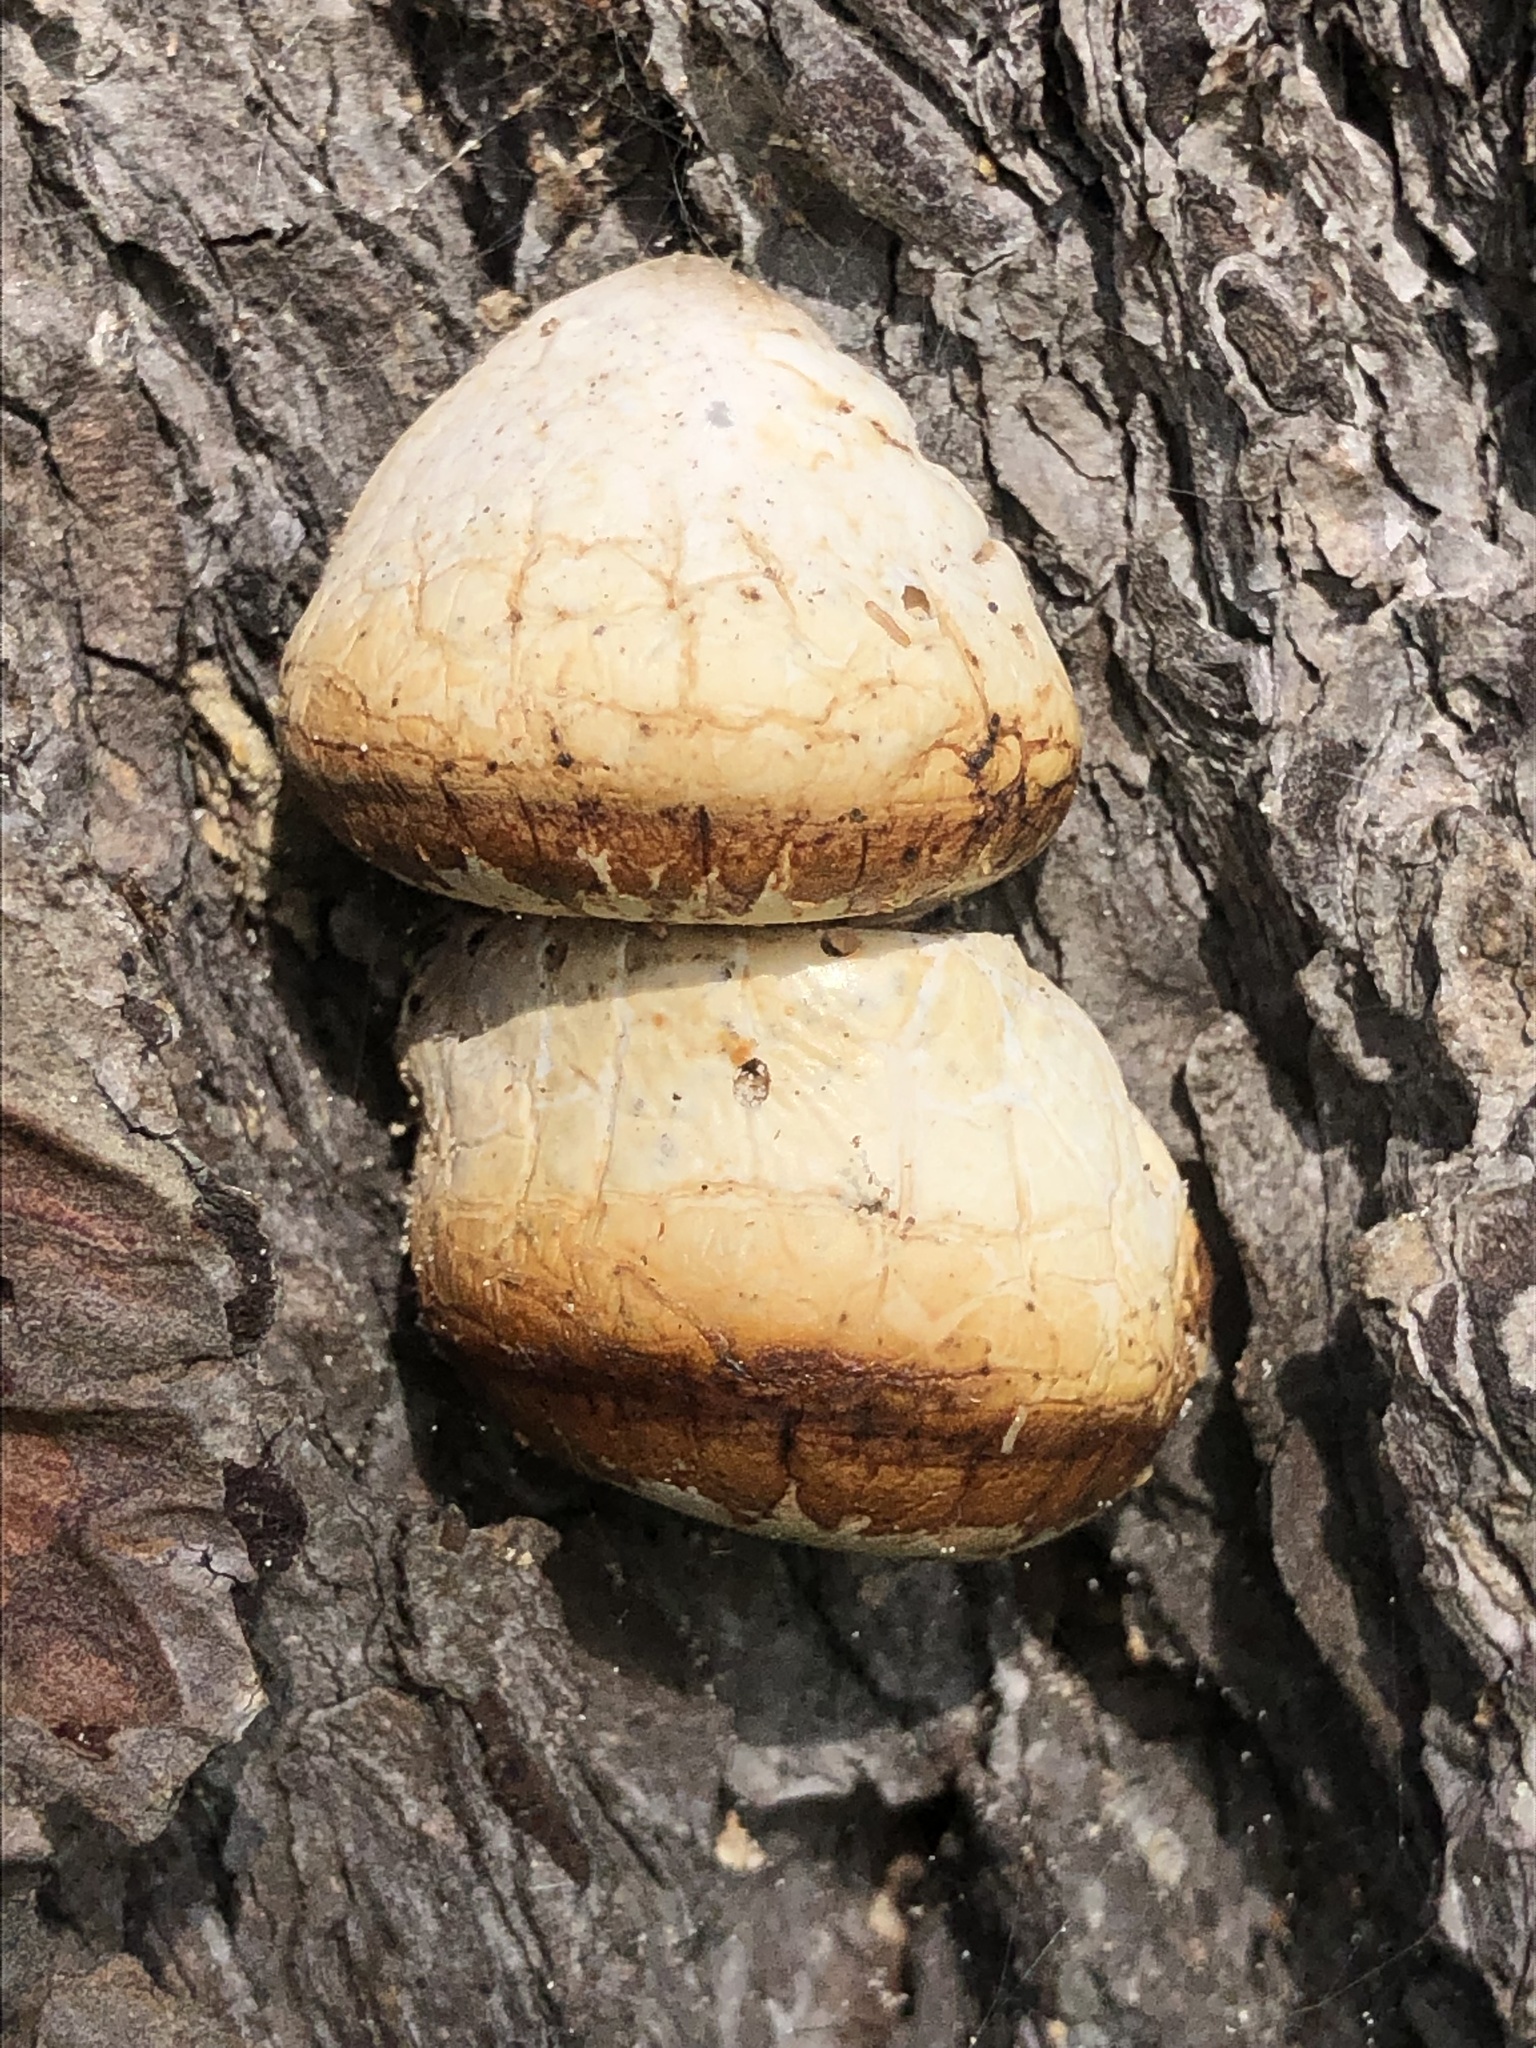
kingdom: Fungi
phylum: Basidiomycota
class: Agaricomycetes
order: Polyporales
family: Polyporaceae
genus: Cryptoporus
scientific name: Cryptoporus volvatus
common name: Veiled polypore
